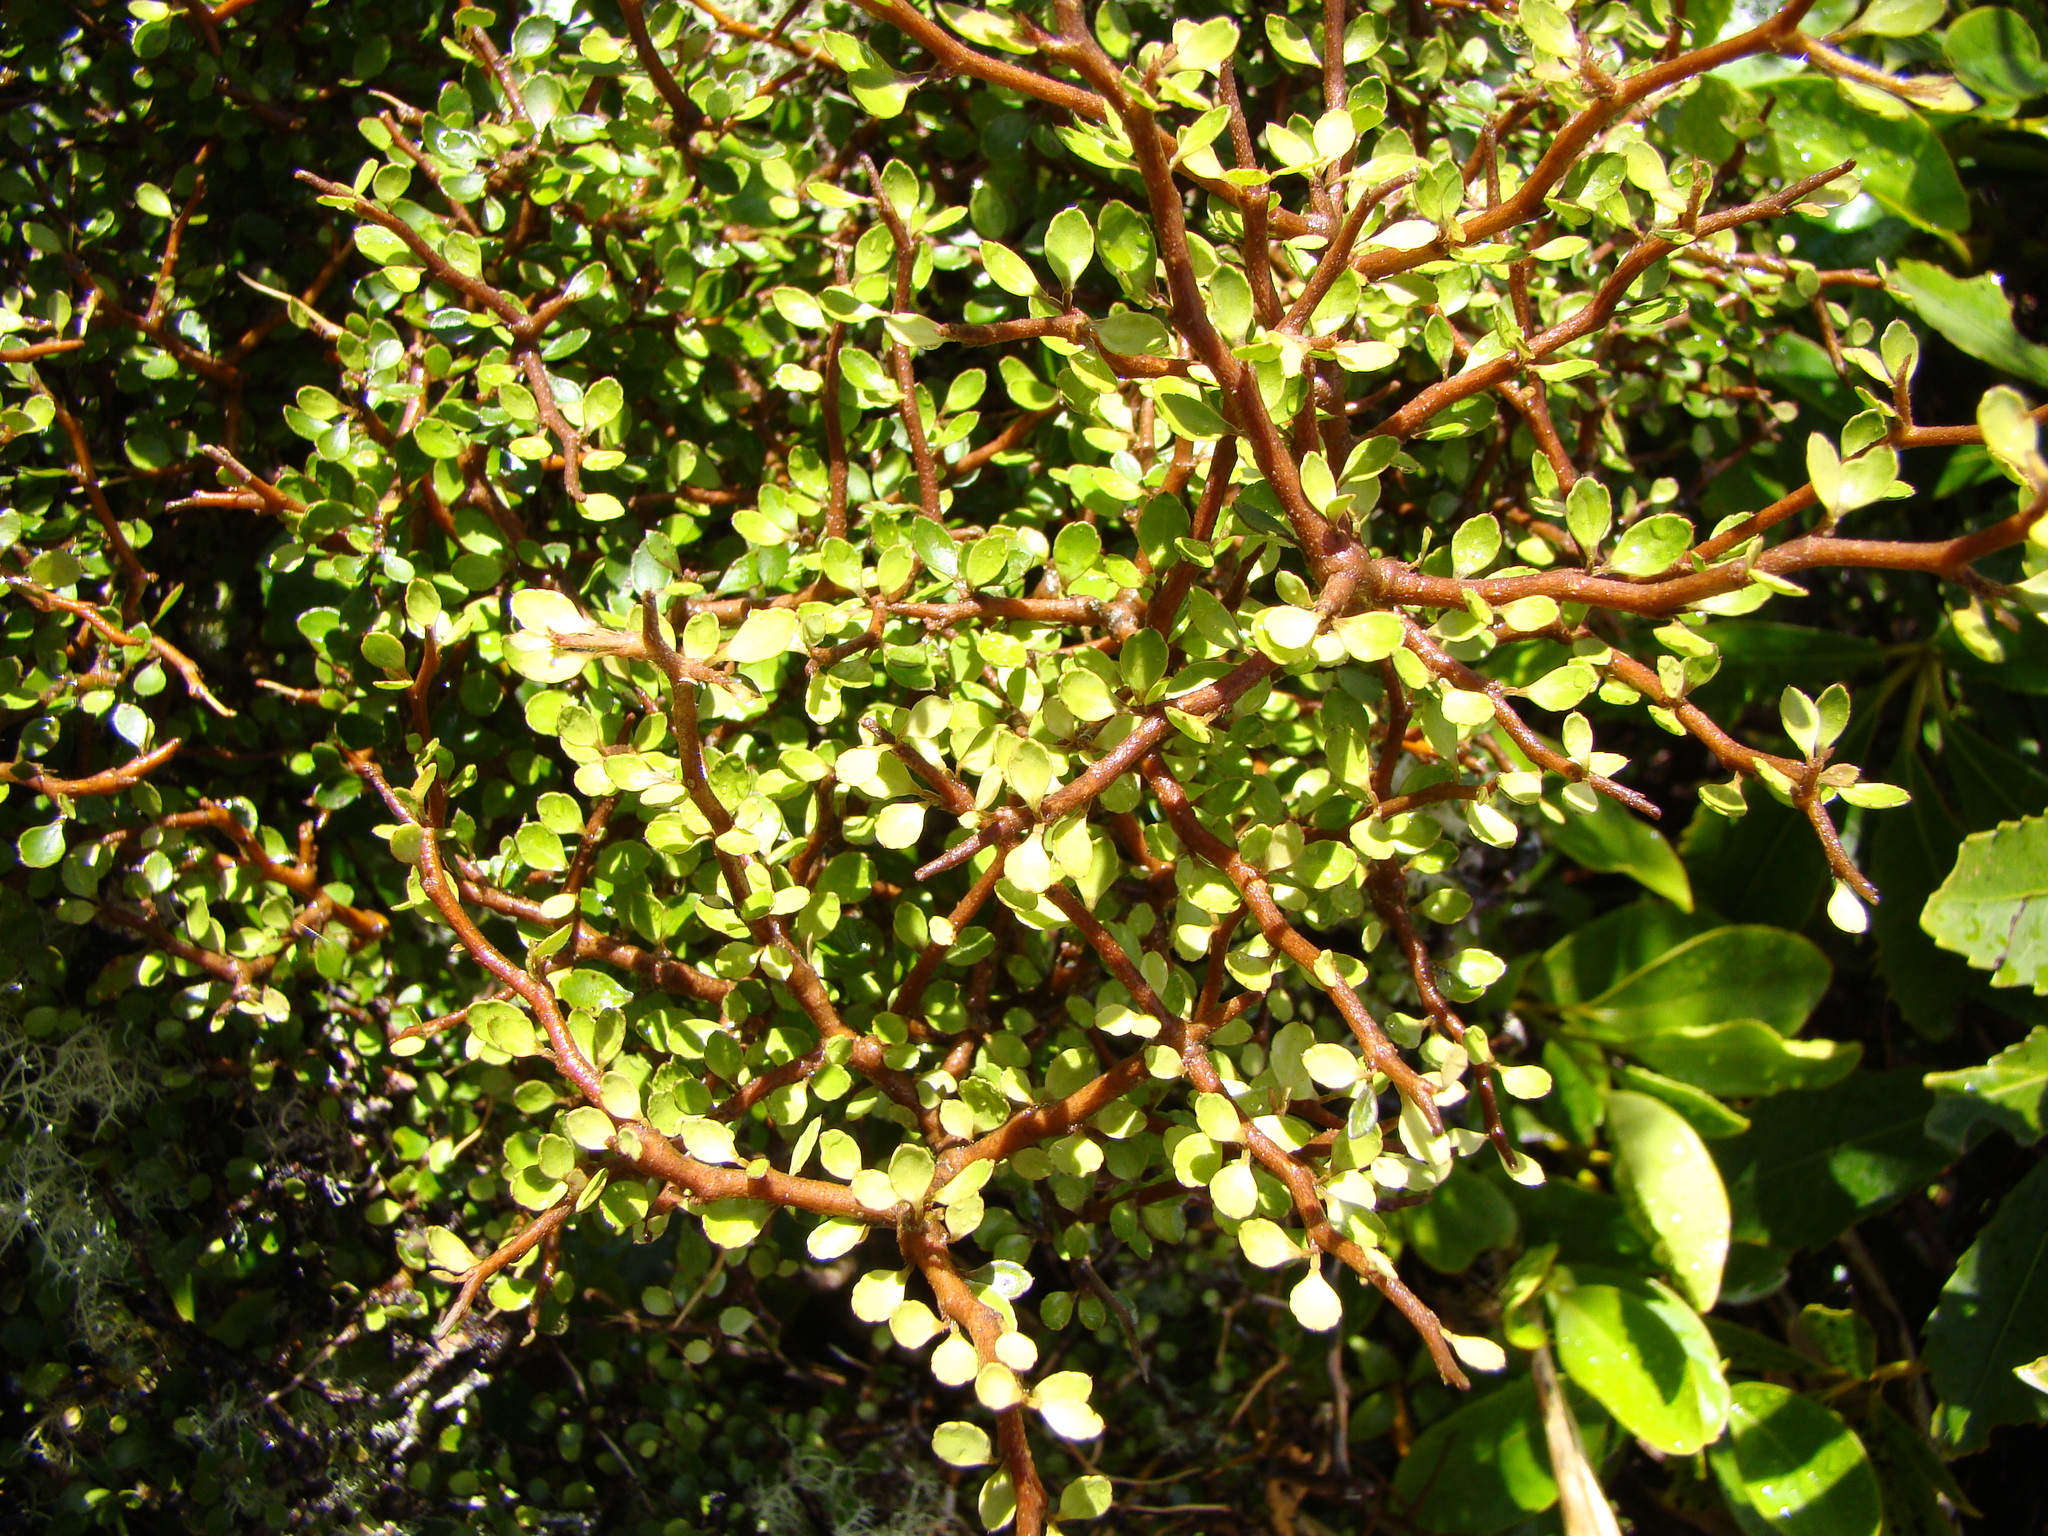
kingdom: Plantae
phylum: Tracheophyta
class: Magnoliopsida
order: Apiales
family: Araliaceae
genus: Raukaua
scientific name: Raukaua anomalus
